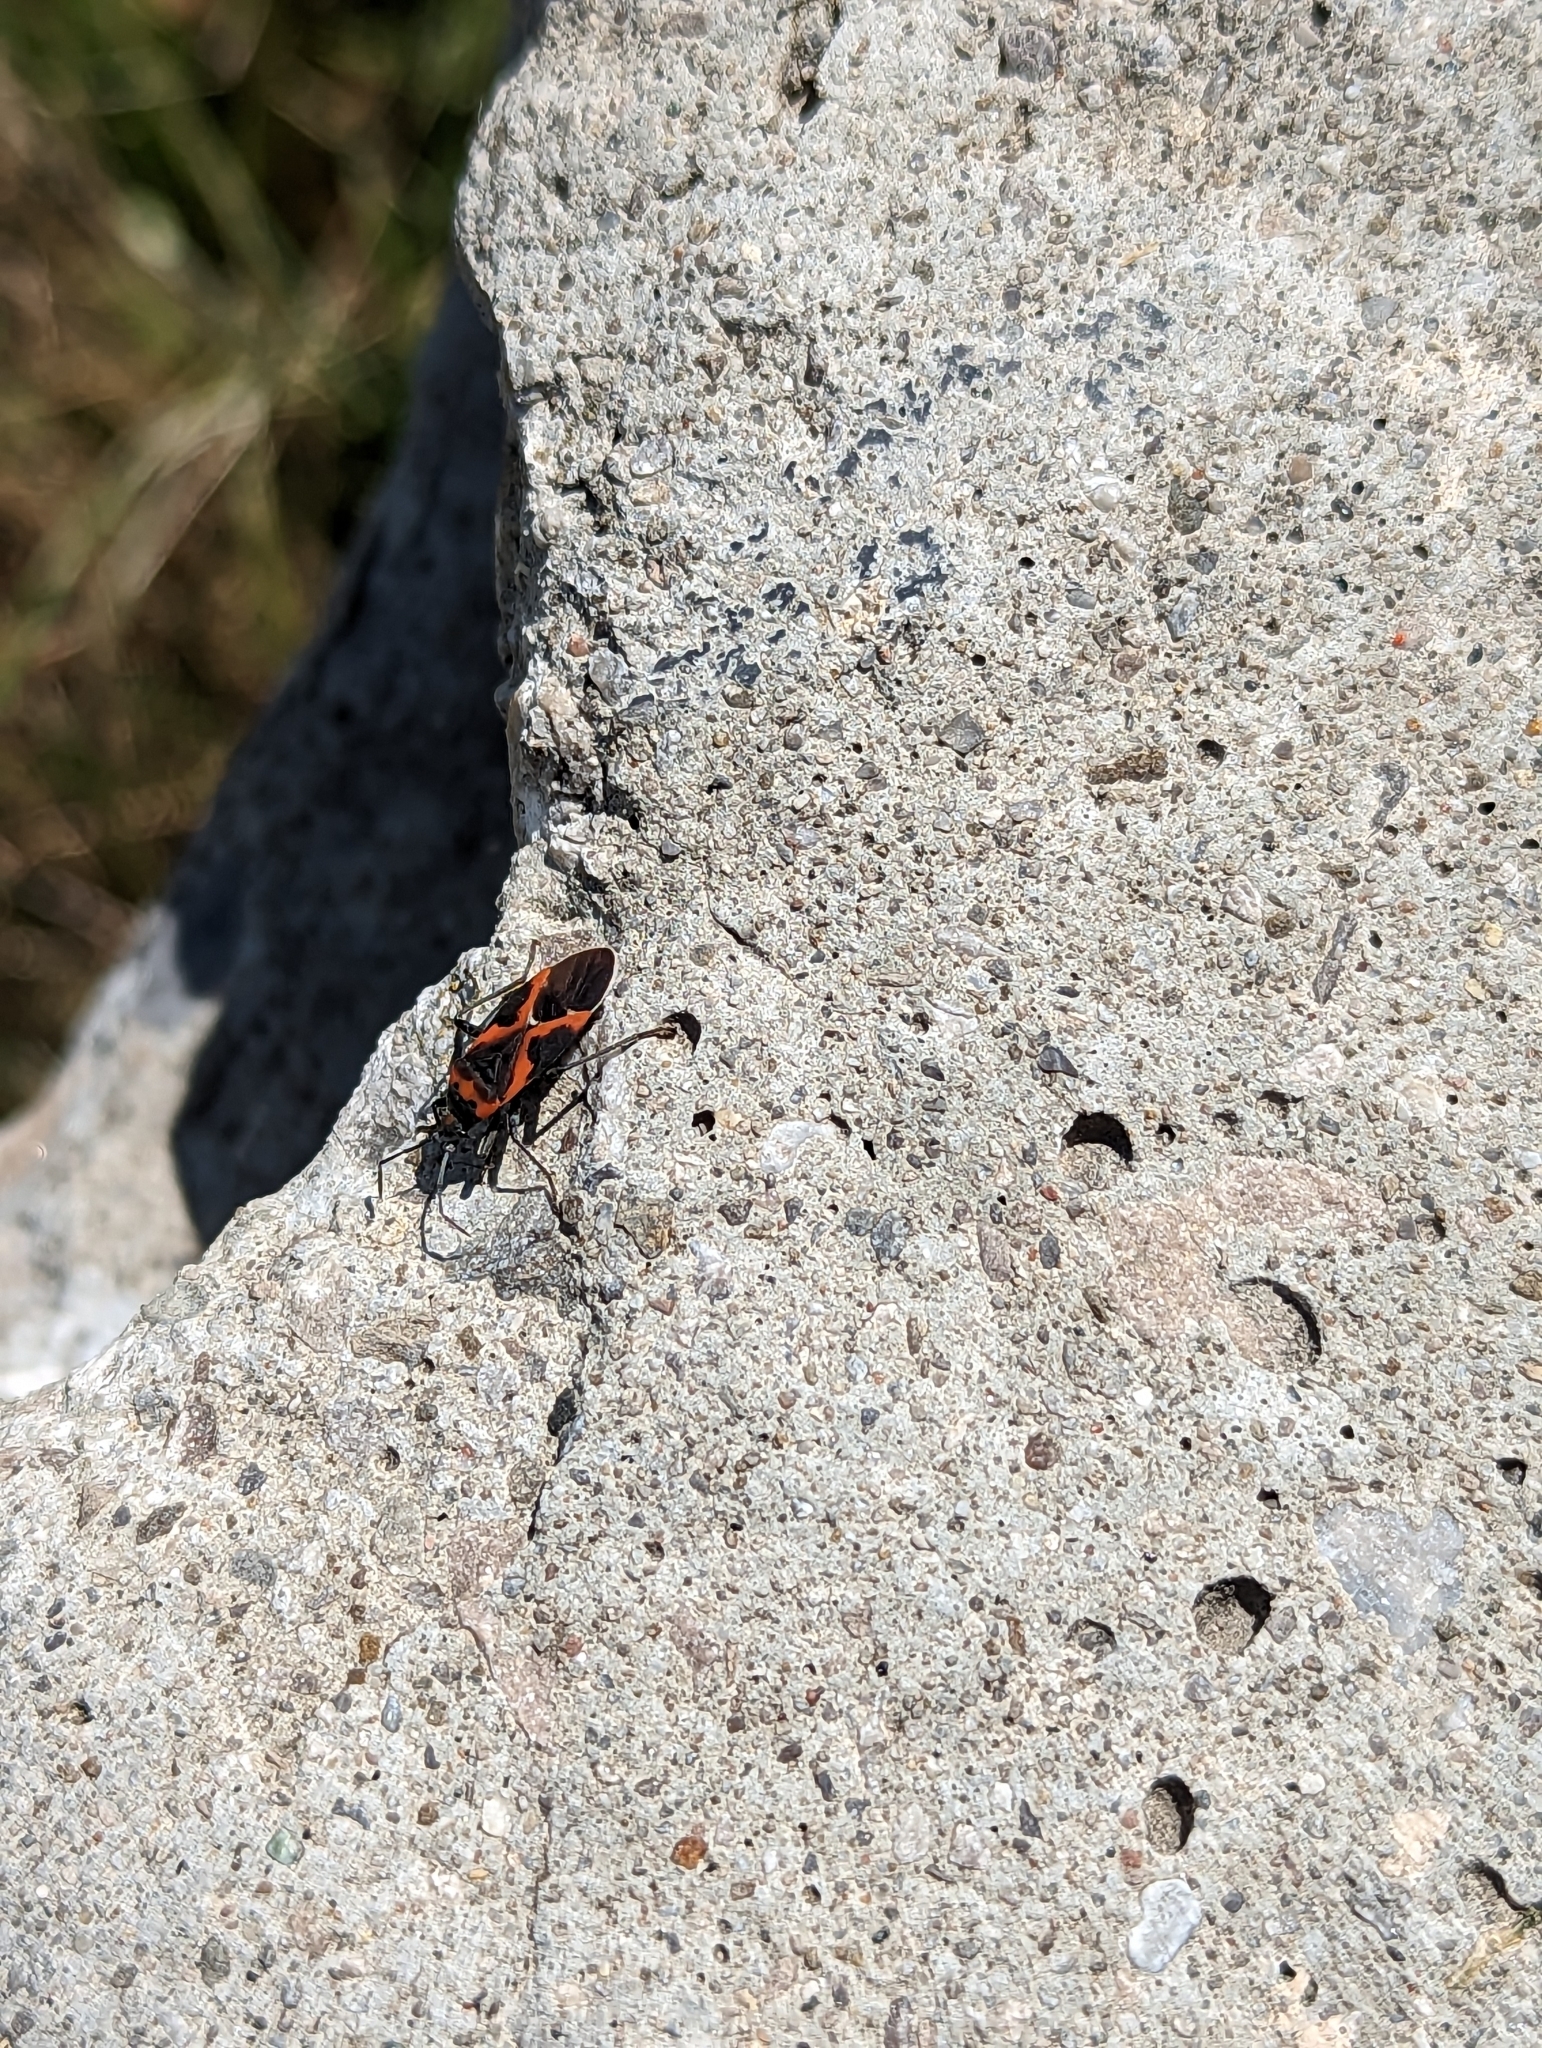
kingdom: Animalia
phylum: Arthropoda
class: Insecta
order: Hemiptera
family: Lygaeidae
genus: Lygaeus
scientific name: Lygaeus kalmii
